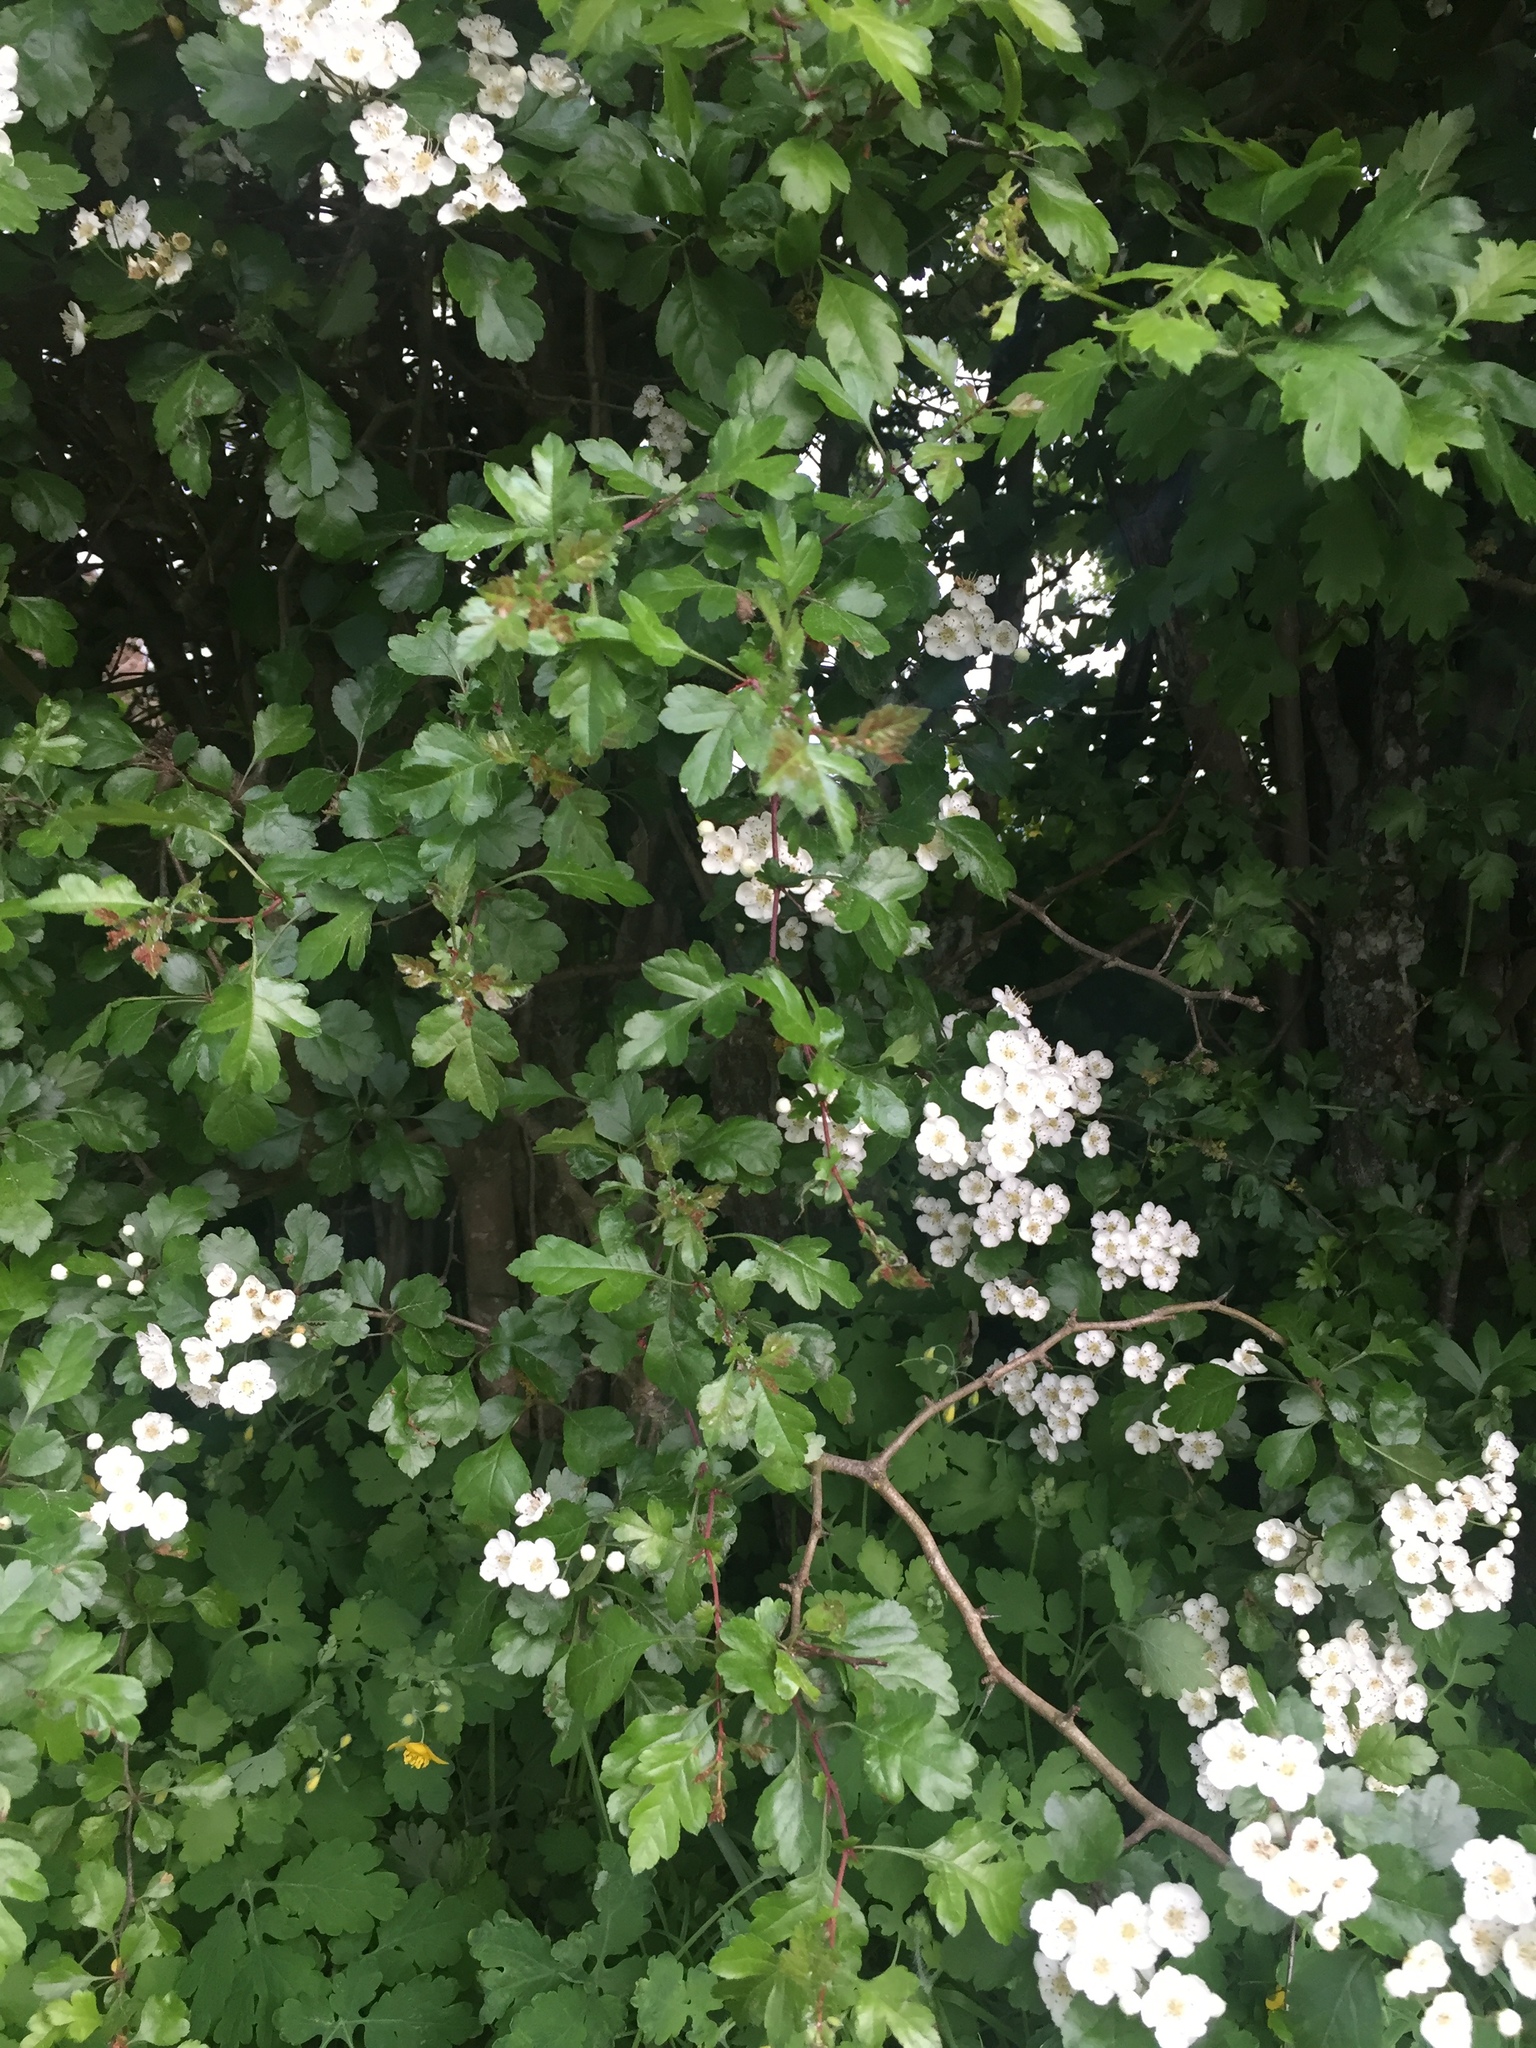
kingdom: Plantae
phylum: Tracheophyta
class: Magnoliopsida
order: Rosales
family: Rosaceae
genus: Crataegus
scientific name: Crataegus monogyna
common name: Hawthorn
